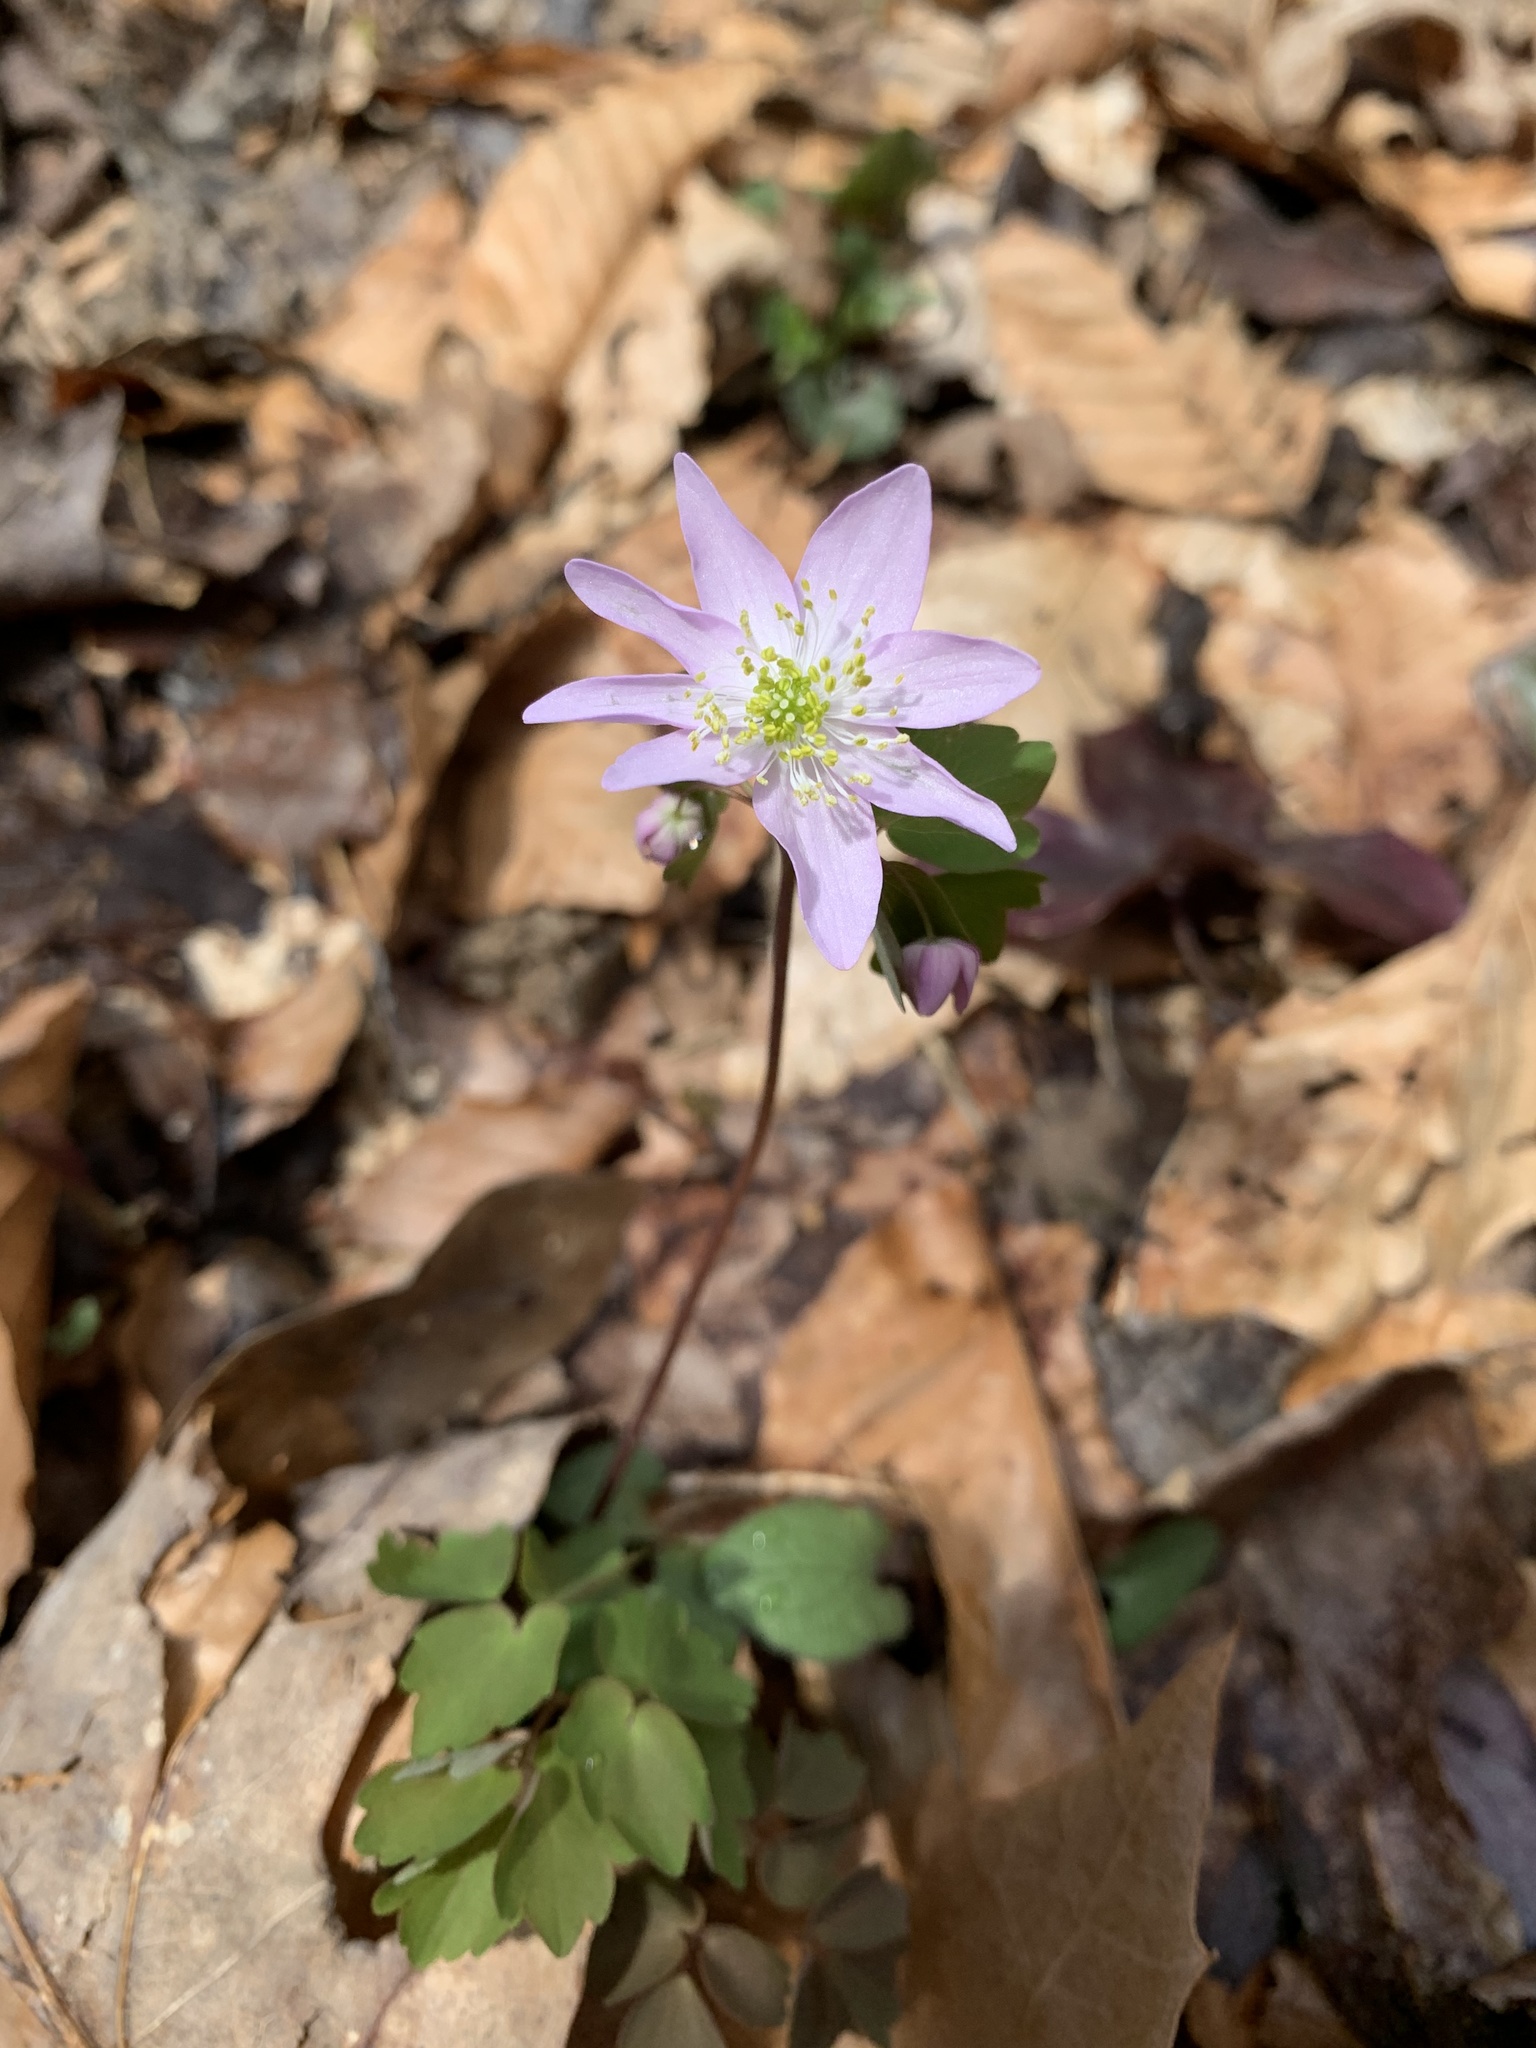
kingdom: Plantae
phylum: Tracheophyta
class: Magnoliopsida
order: Ranunculales
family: Ranunculaceae
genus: Thalictrum
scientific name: Thalictrum thalictroides
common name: Rue-anemone
